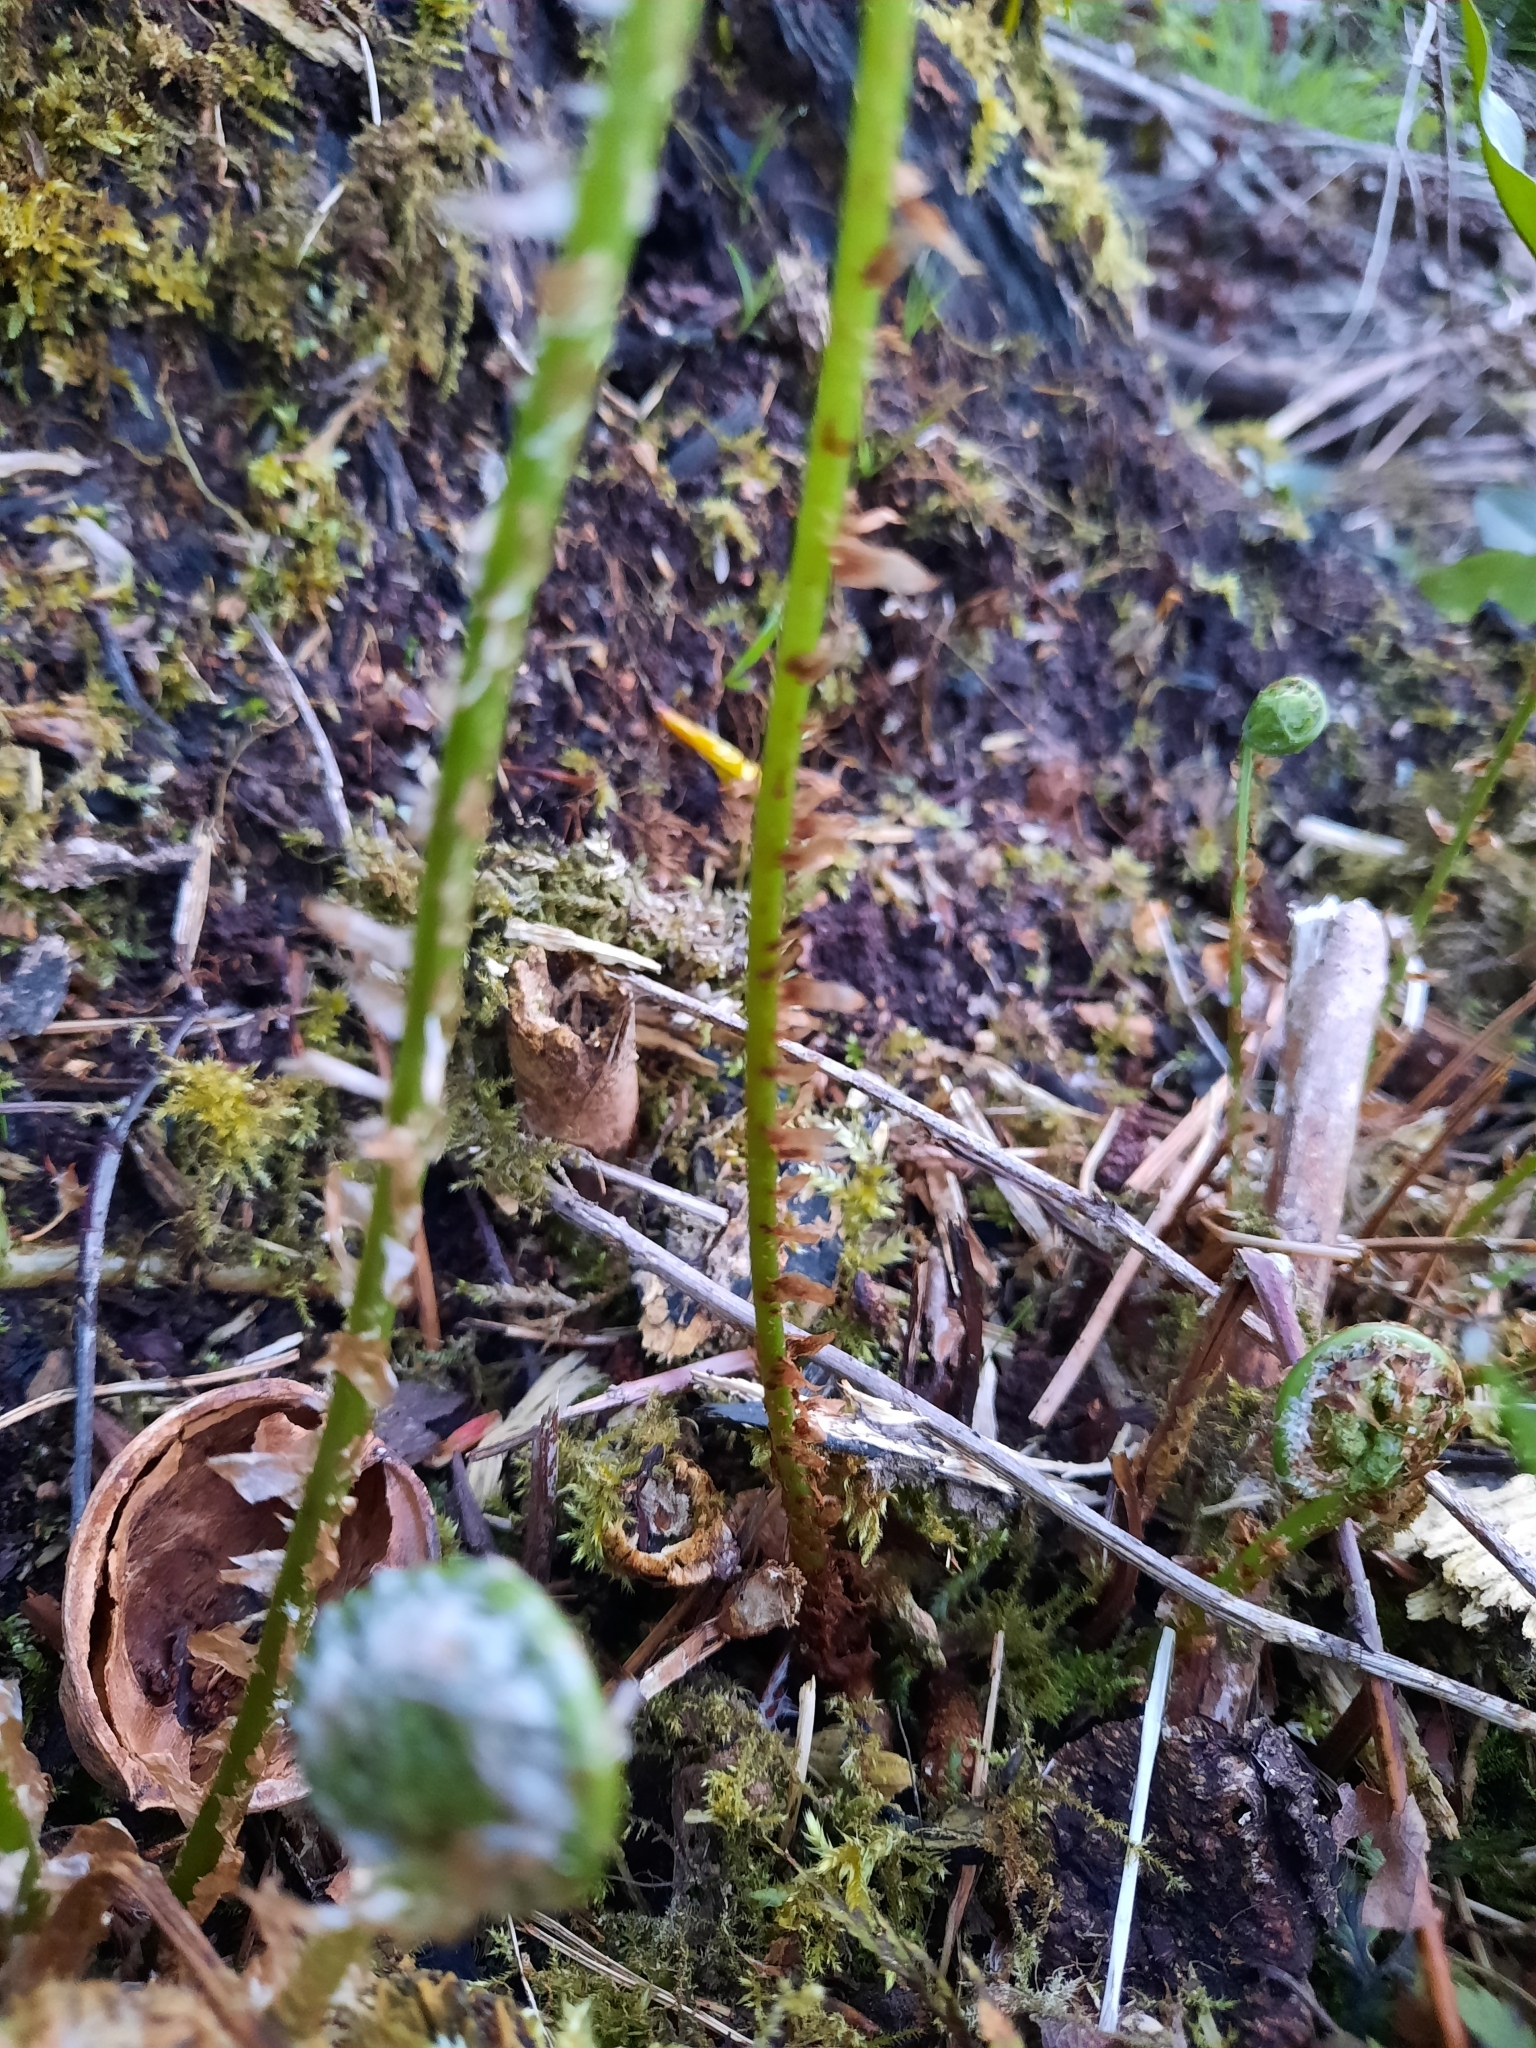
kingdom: Plantae
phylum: Tracheophyta
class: Polypodiopsida
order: Polypodiales
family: Dryopteridaceae
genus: Dryopteris
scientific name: Dryopteris carthusiana
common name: Narrow buckler-fern
